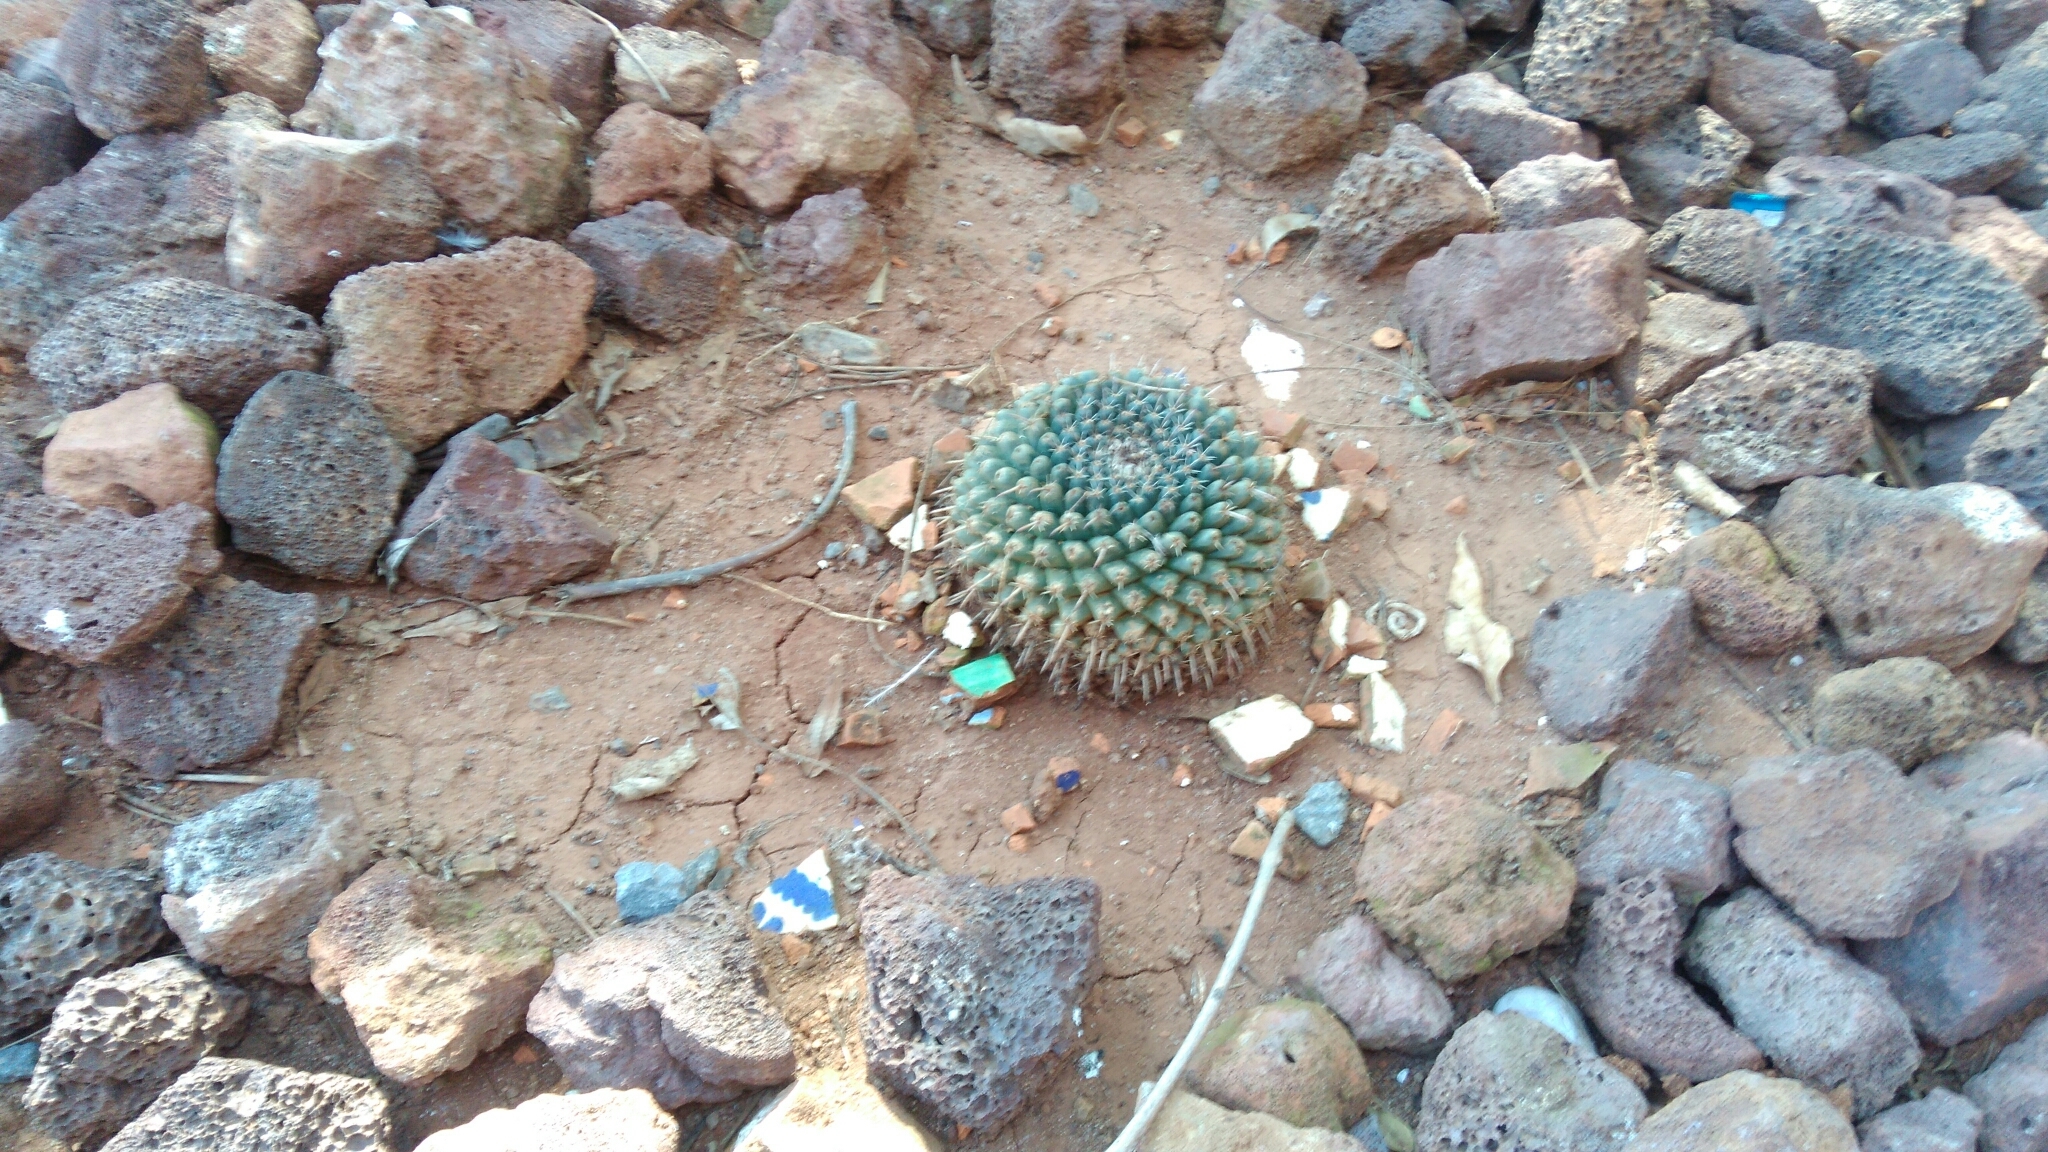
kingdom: Plantae
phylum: Tracheophyta
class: Magnoliopsida
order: Caryophyllales
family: Cactaceae
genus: Mammillaria
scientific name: Mammillaria uncinata
